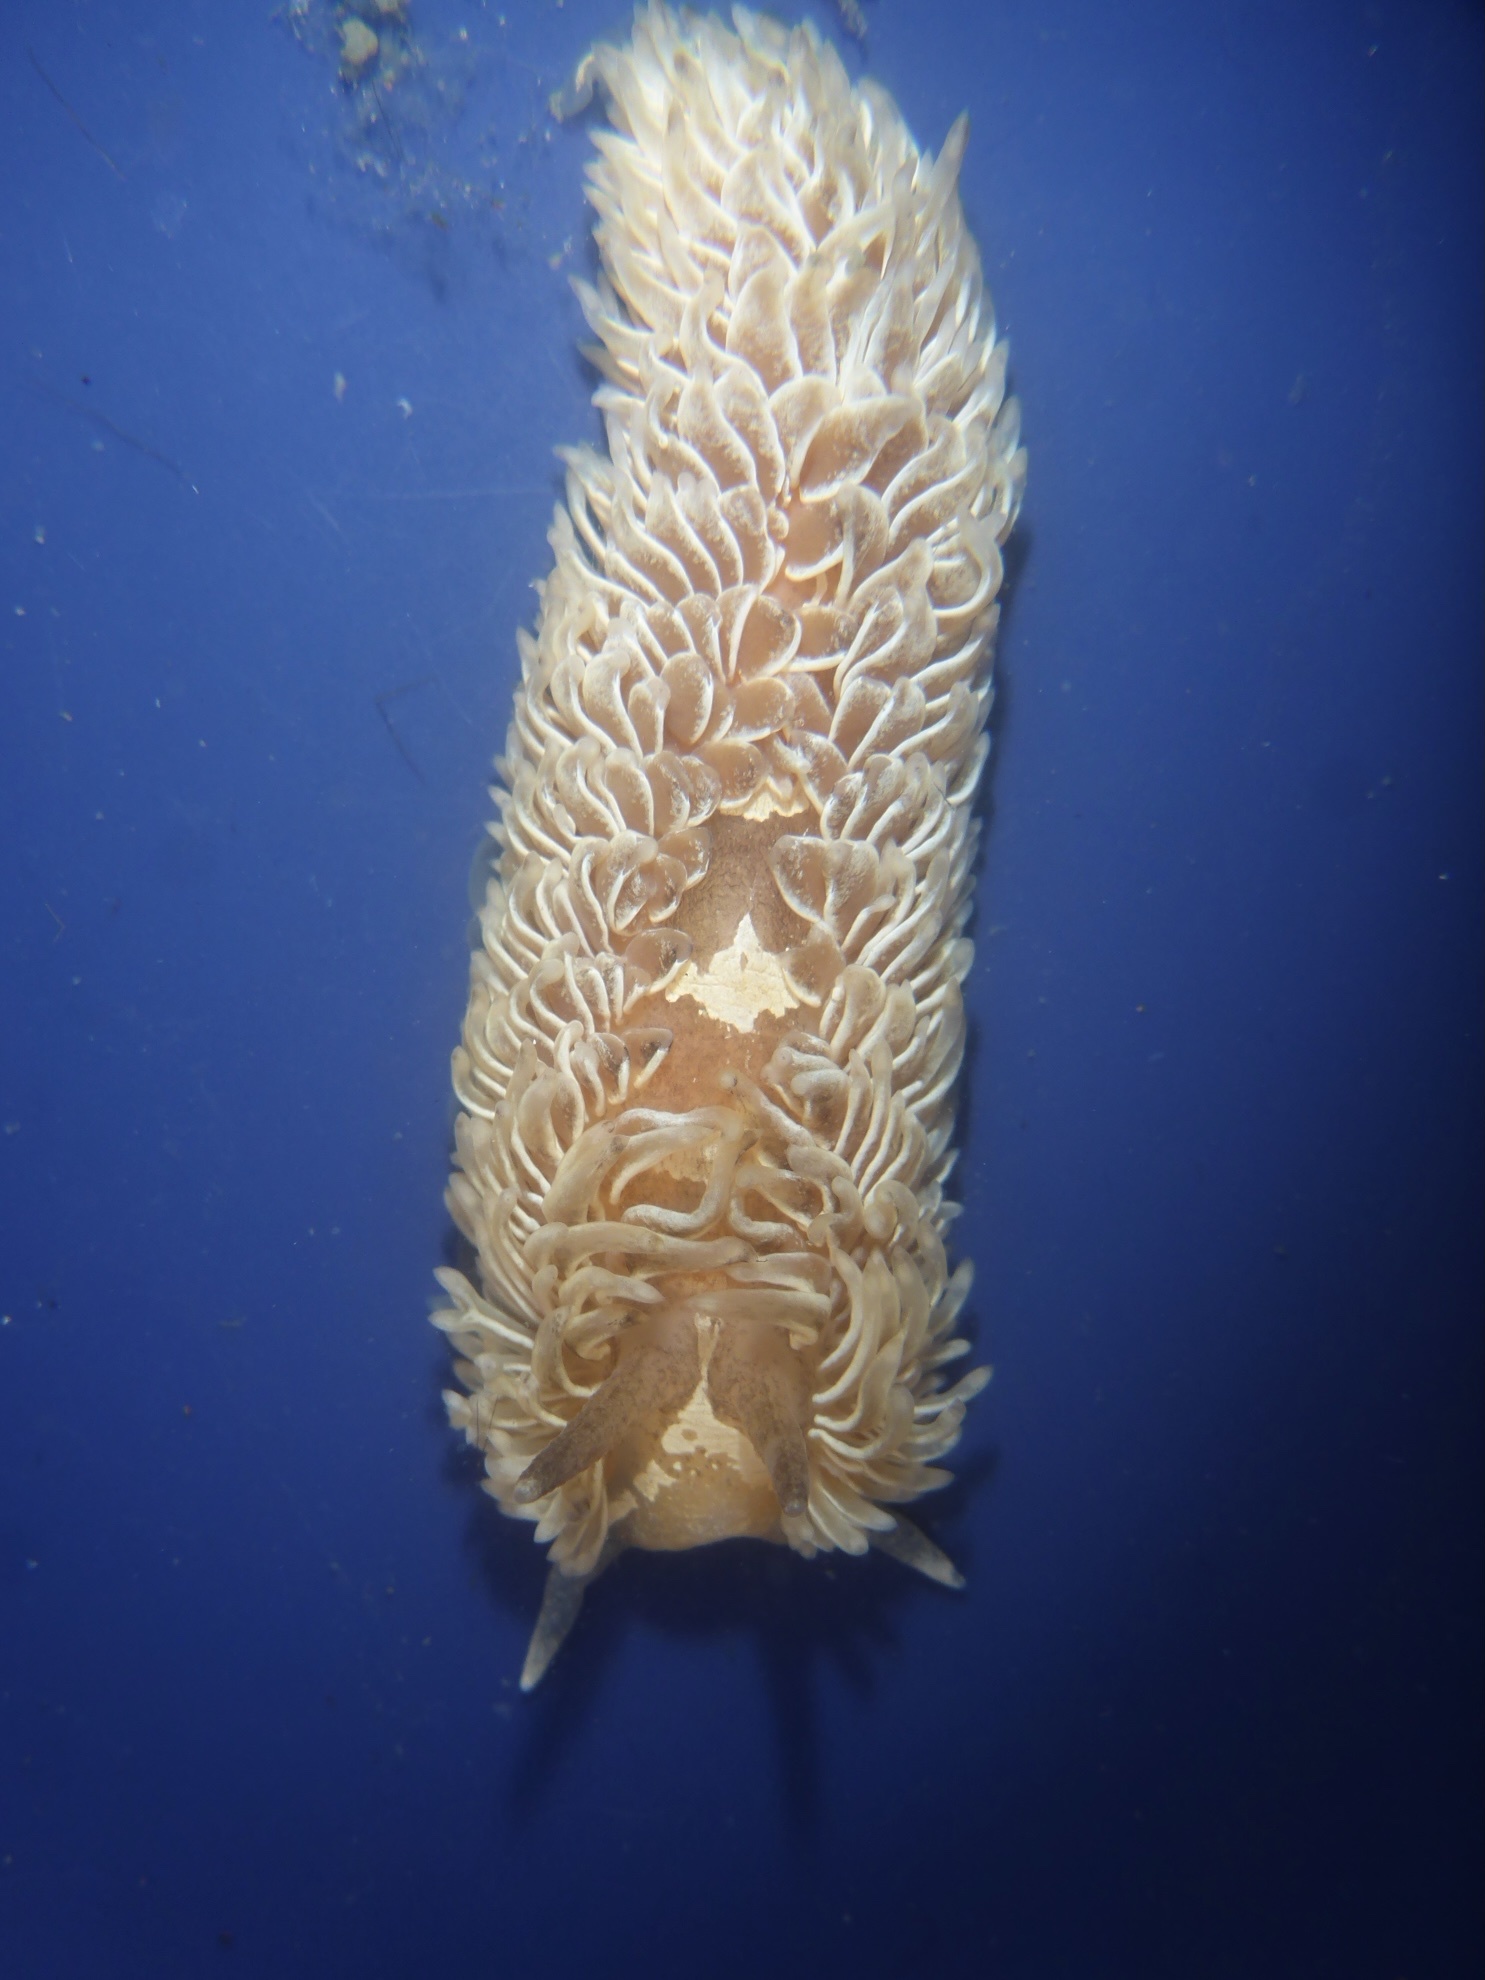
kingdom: Animalia
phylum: Mollusca
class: Gastropoda
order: Nudibranchia
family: Aeolidiidae
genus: Aeolidia
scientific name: Aeolidia loui
